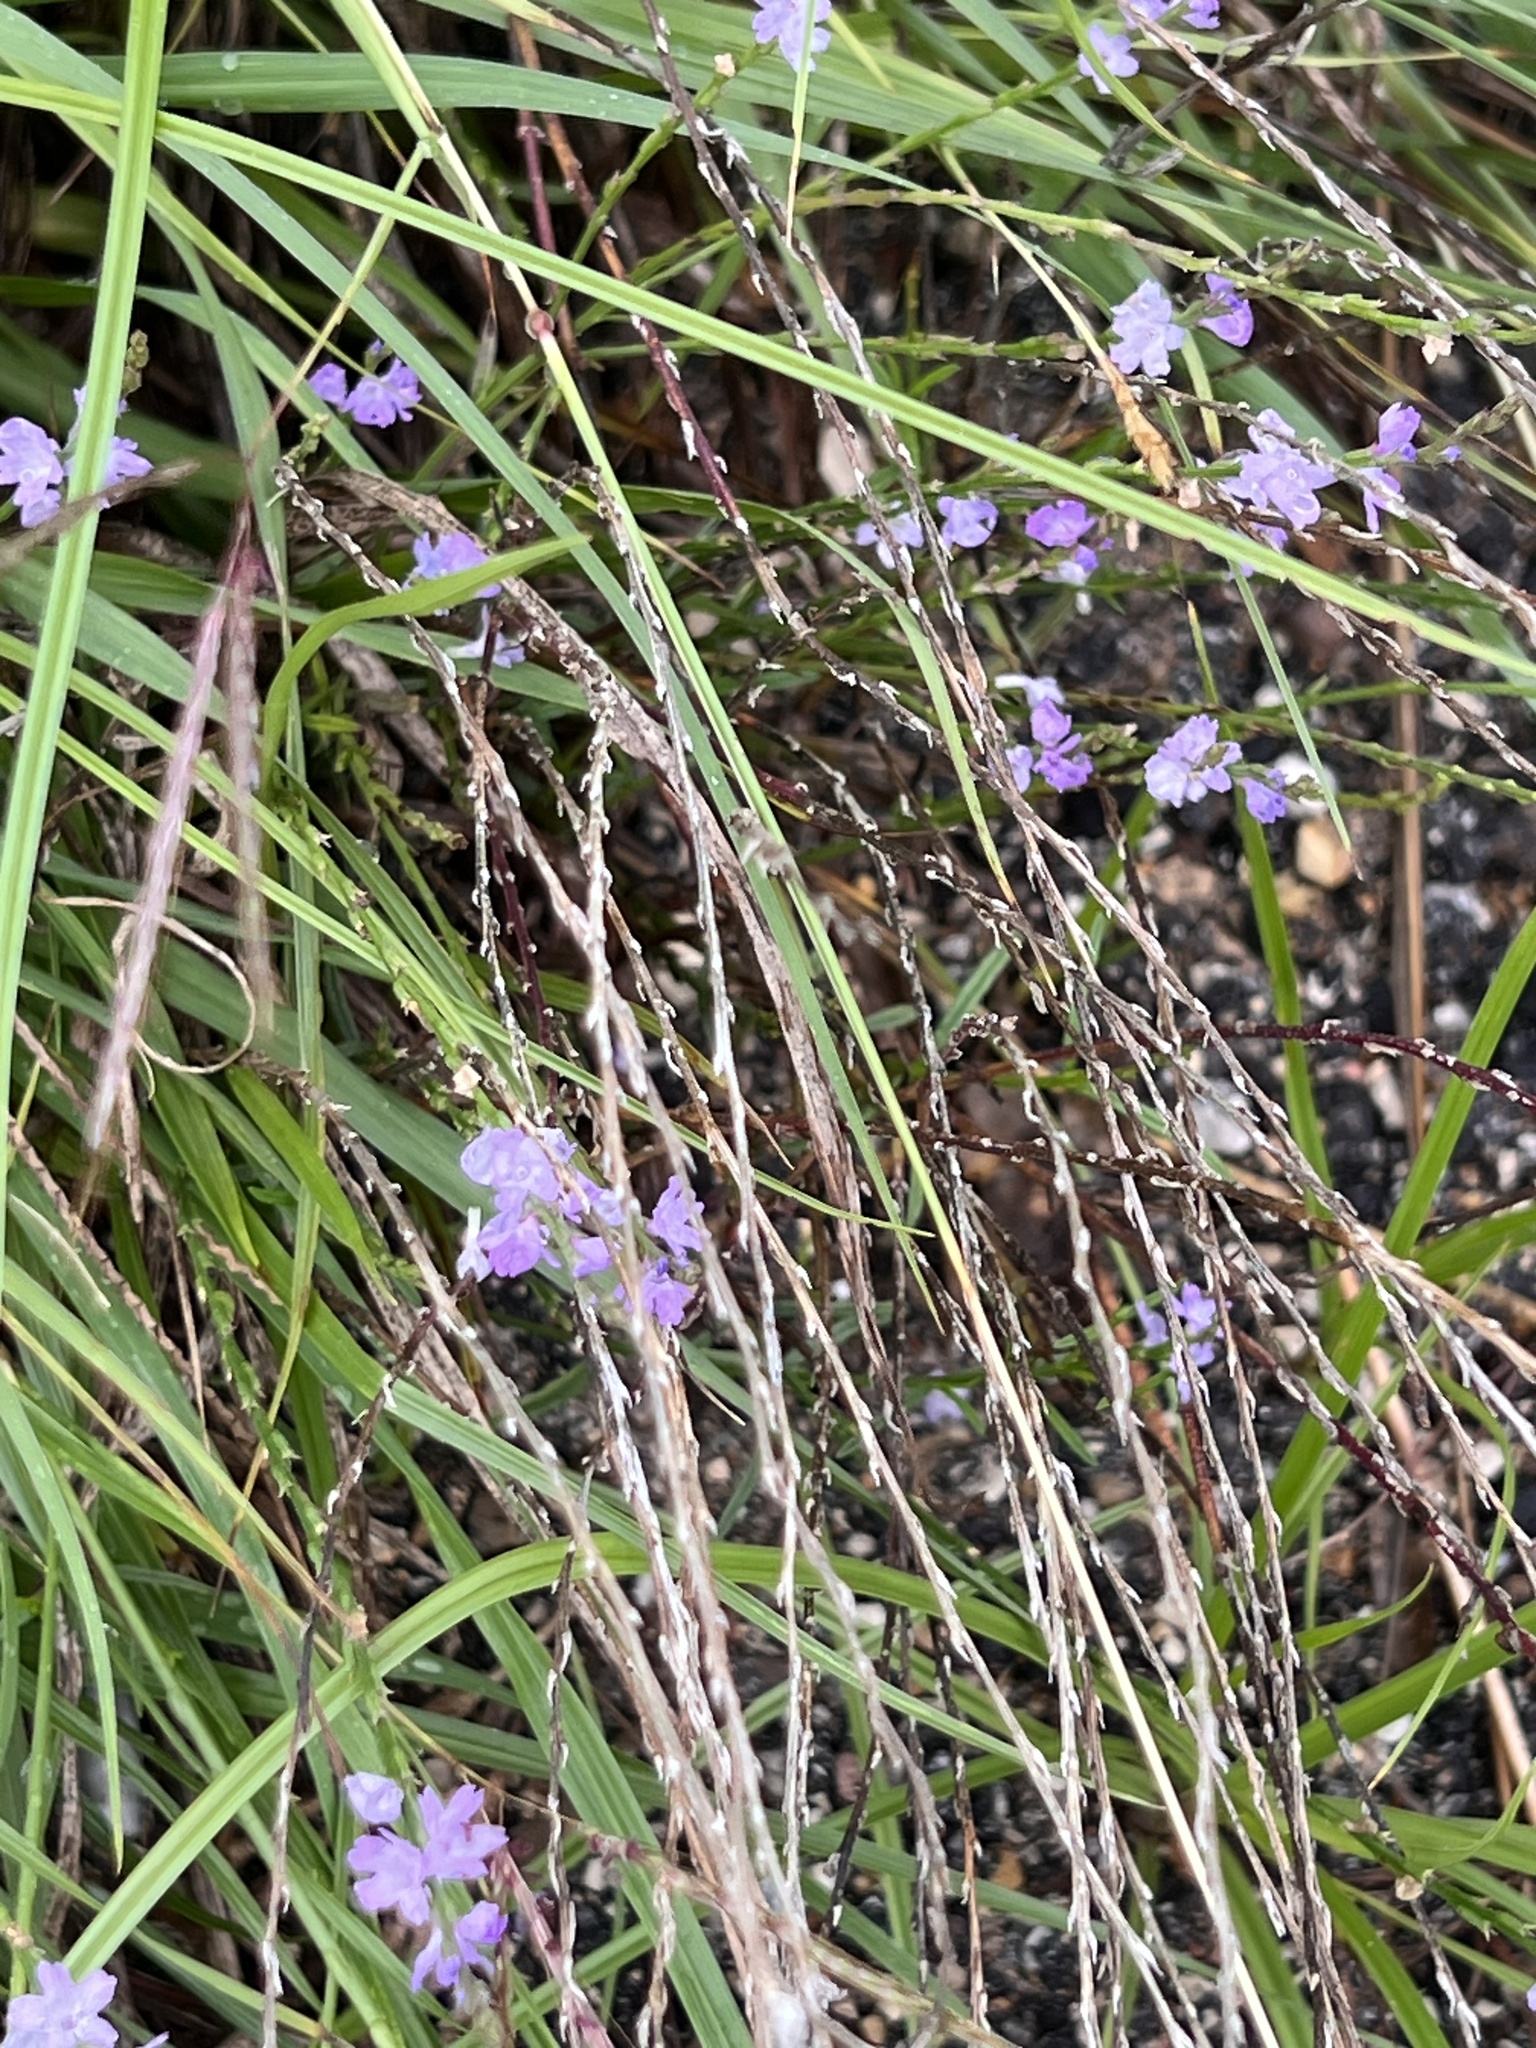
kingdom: Plantae
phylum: Tracheophyta
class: Magnoliopsida
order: Lamiales
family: Verbenaceae
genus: Verbena
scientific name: Verbena halei
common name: Texas vervain
